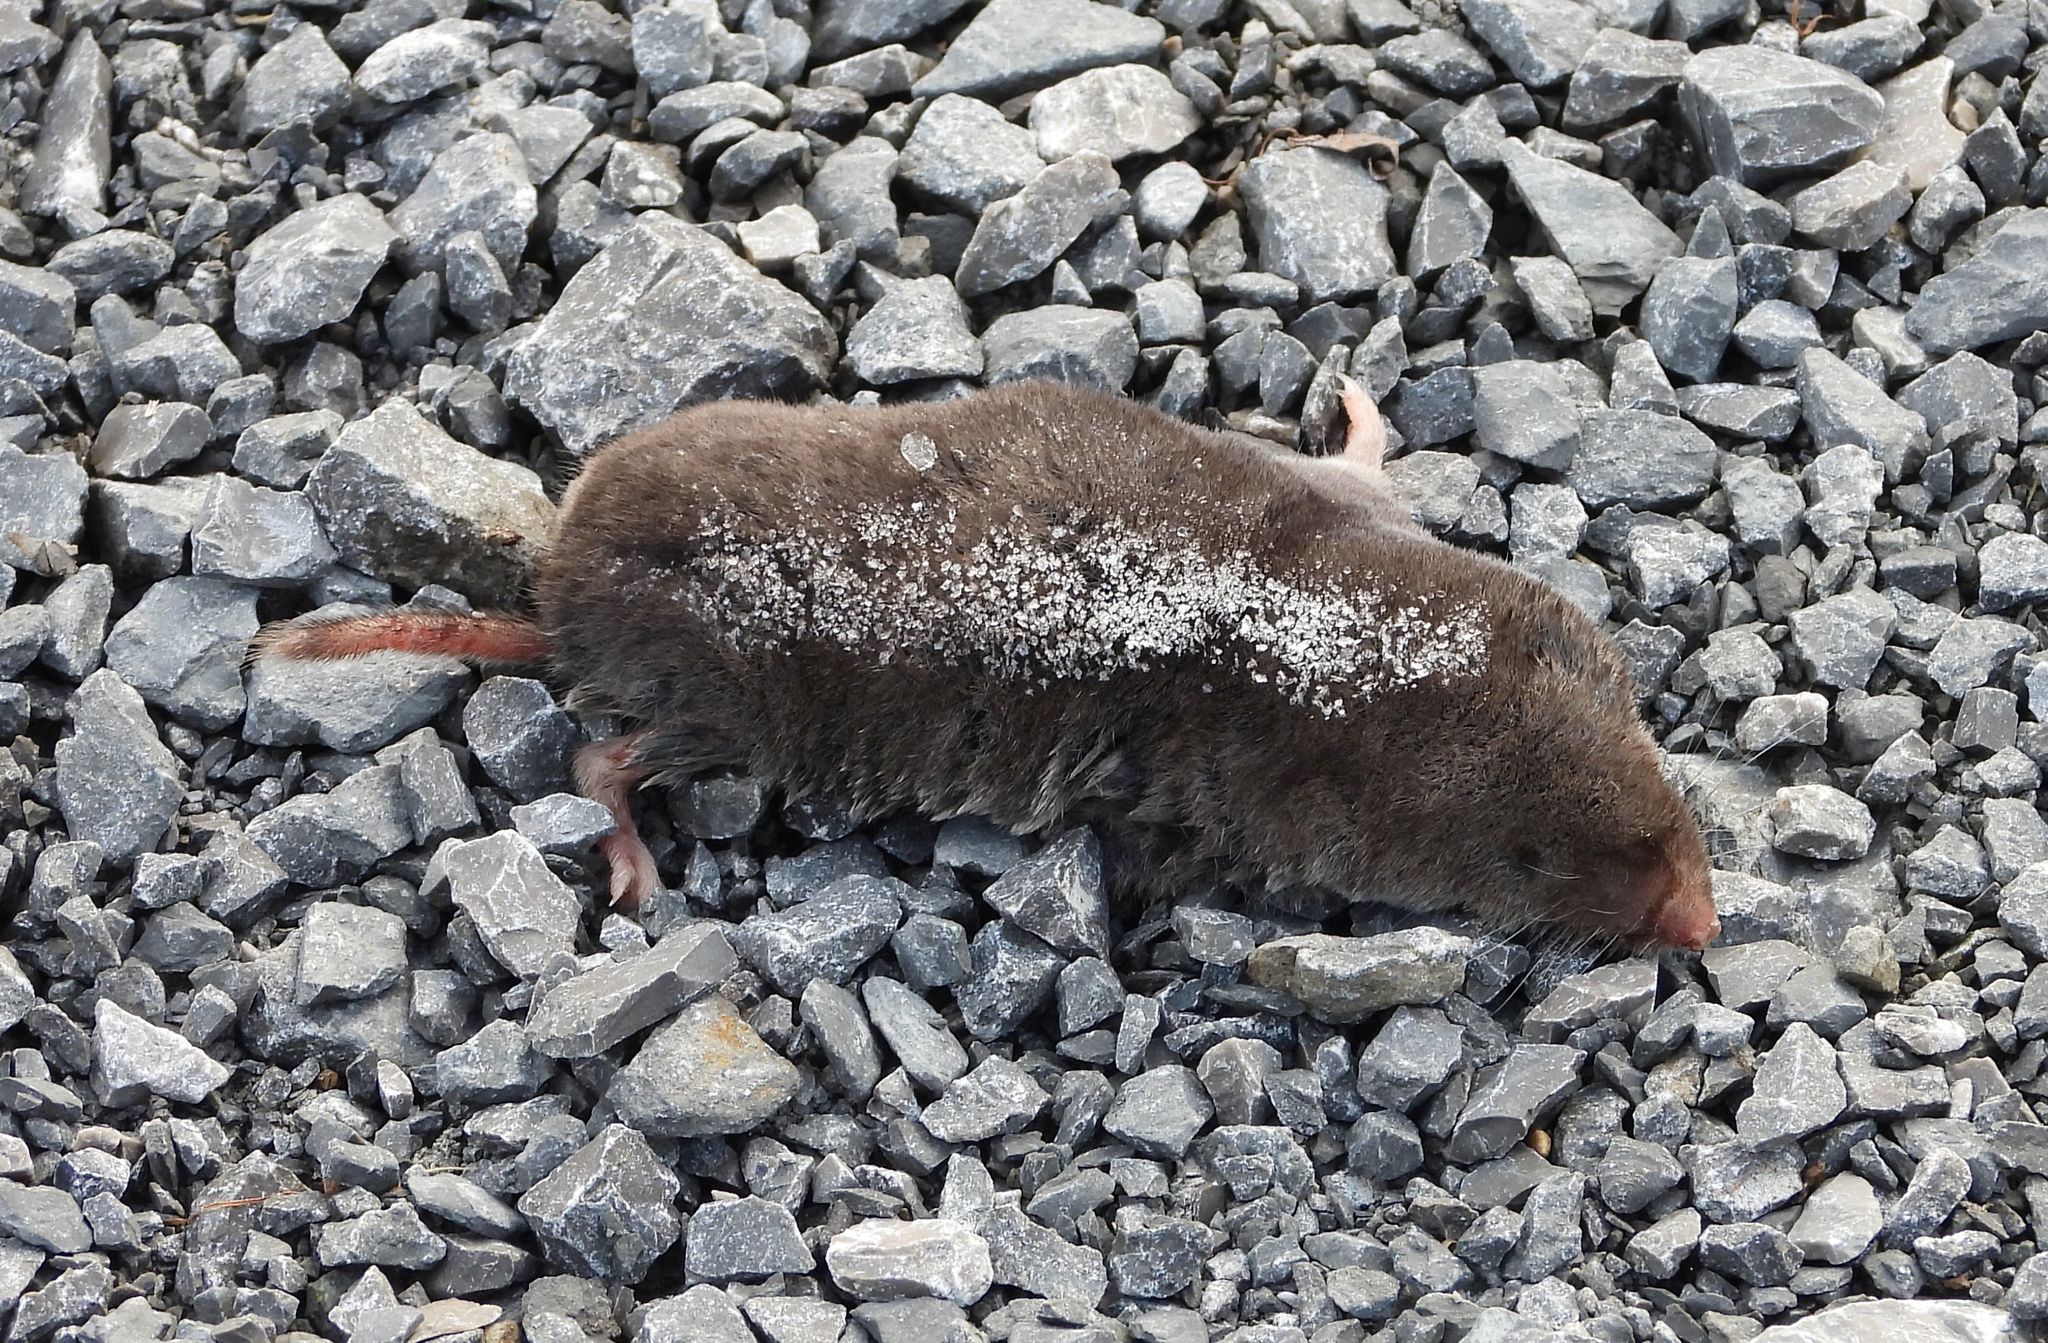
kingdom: Animalia
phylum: Chordata
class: Mammalia
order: Soricomorpha
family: Soricidae
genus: Blarina
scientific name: Blarina brevicauda
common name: Northern short-tailed shrew
